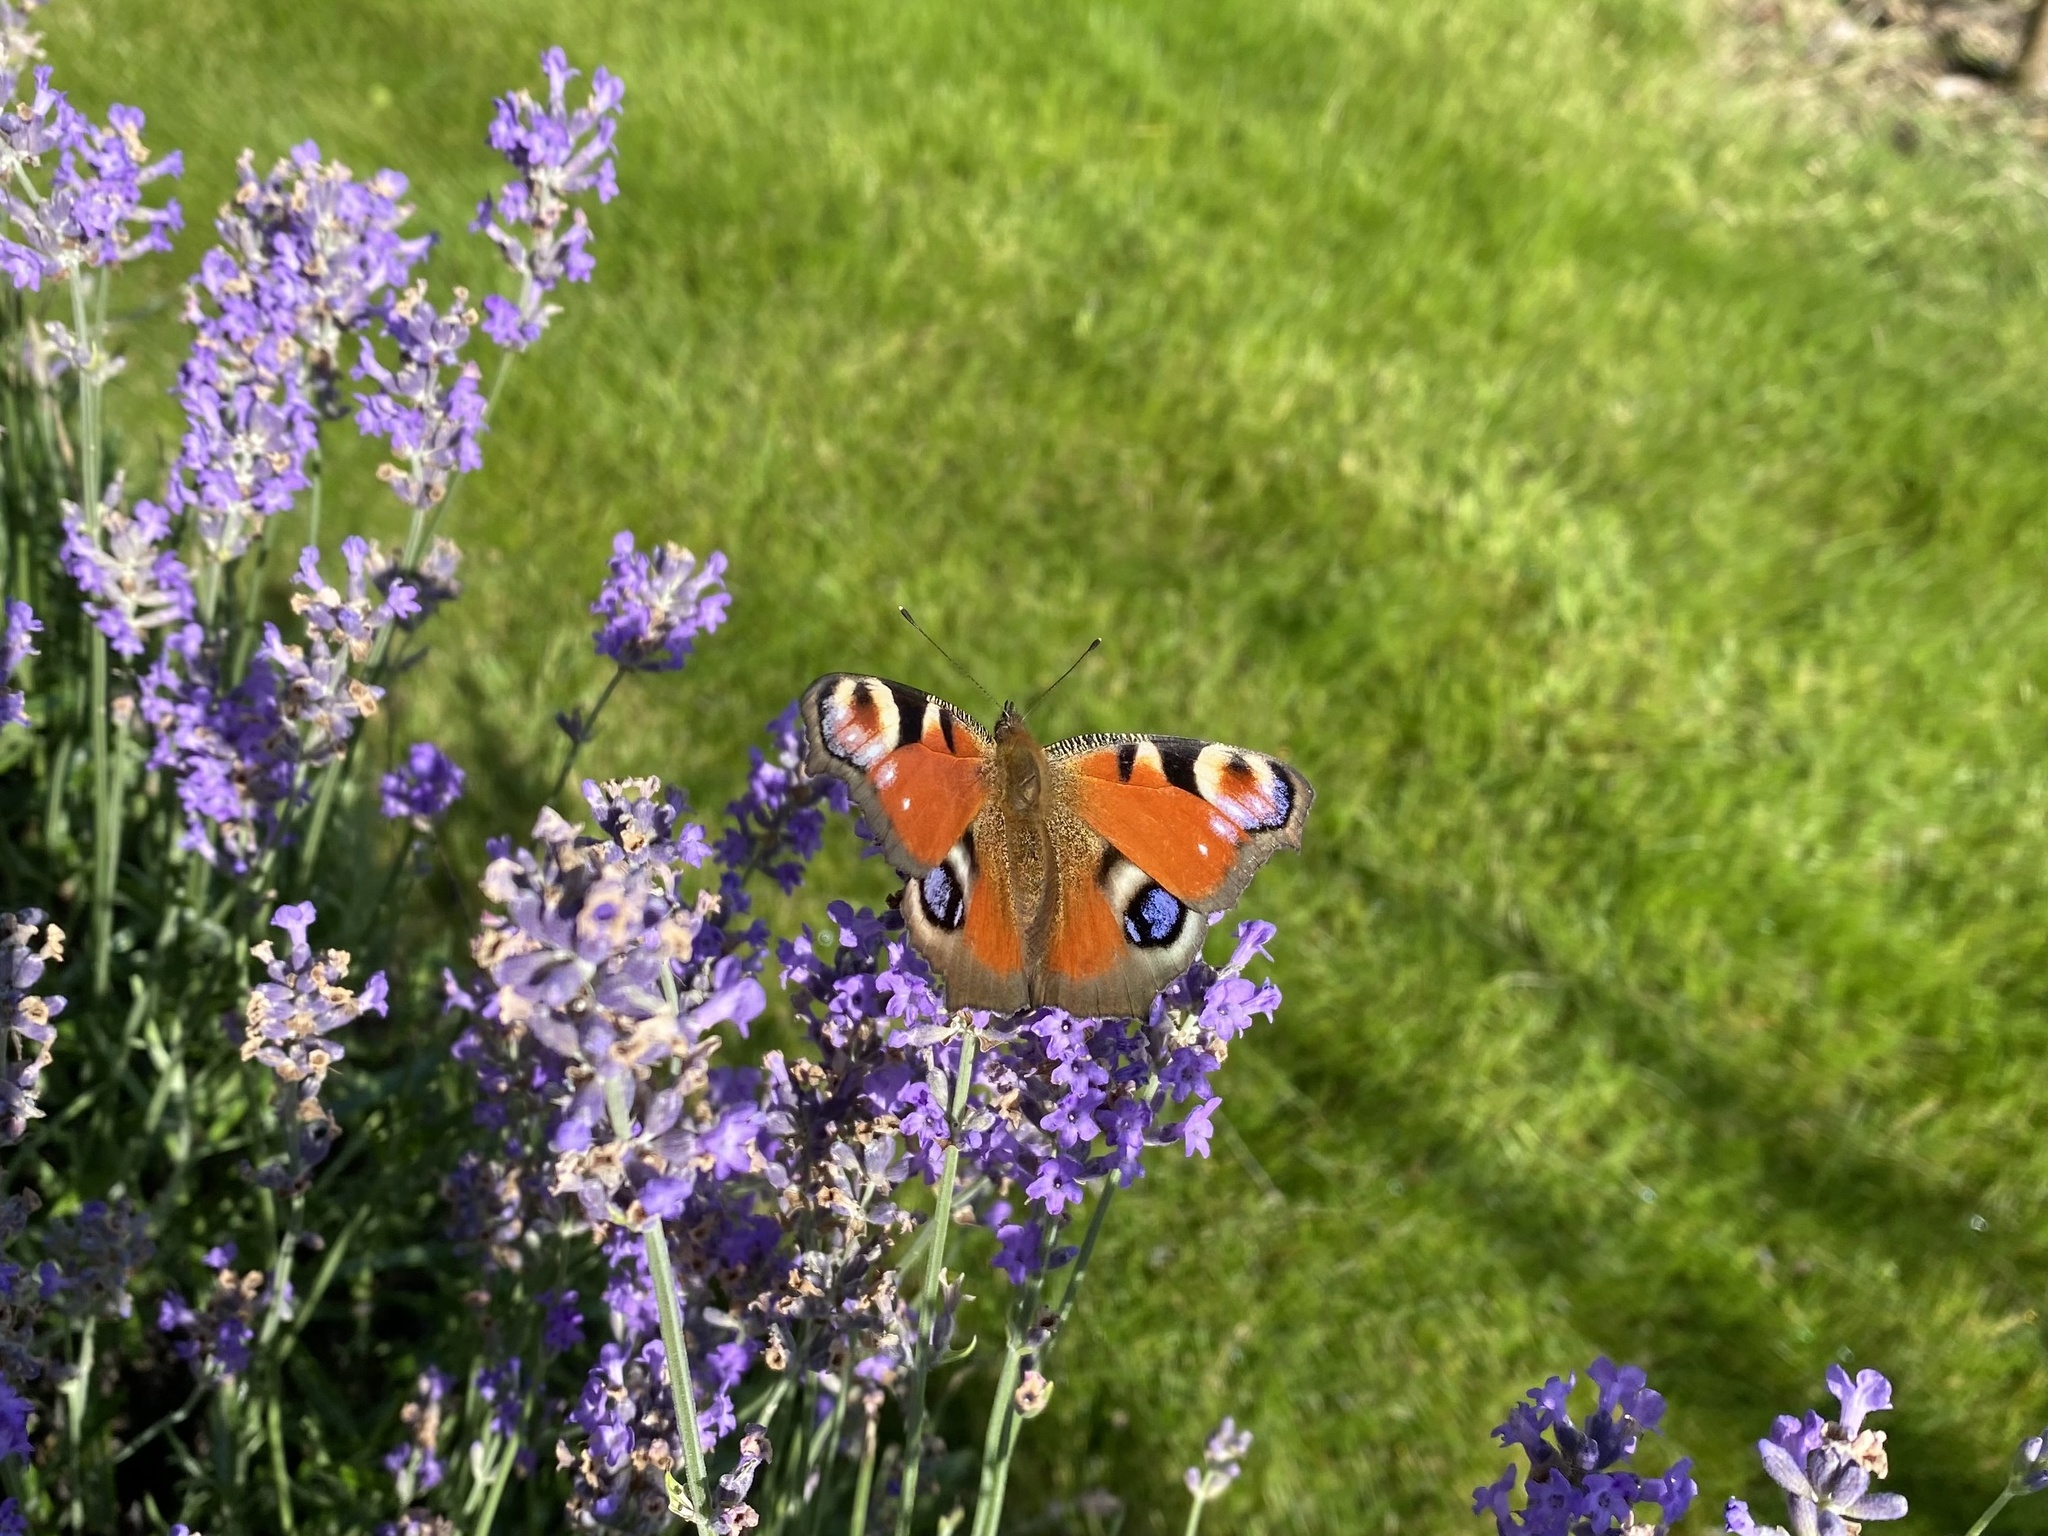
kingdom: Animalia
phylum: Arthropoda
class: Insecta
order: Lepidoptera
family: Nymphalidae
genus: Aglais
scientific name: Aglais io
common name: Peacock
